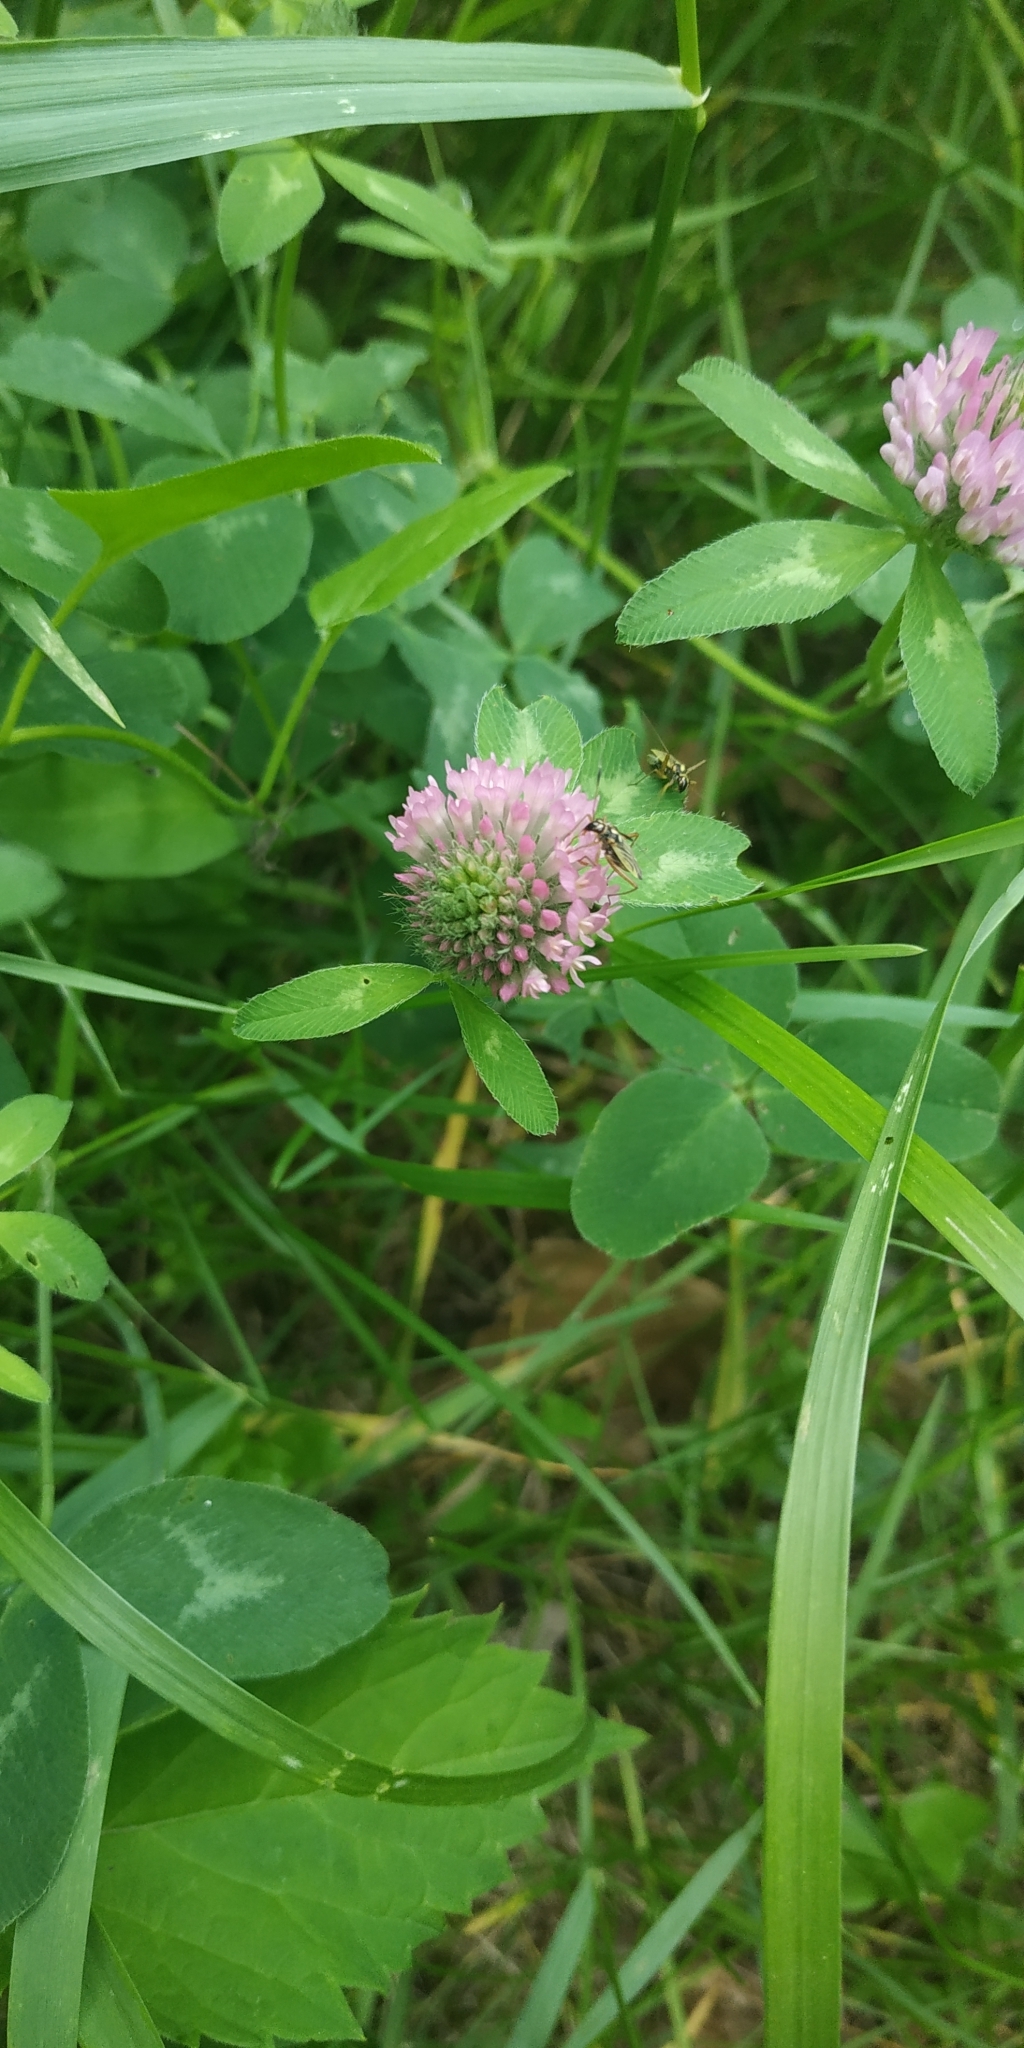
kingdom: Plantae
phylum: Tracheophyta
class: Magnoliopsida
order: Fabales
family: Fabaceae
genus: Trifolium
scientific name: Trifolium pratense
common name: Red clover
